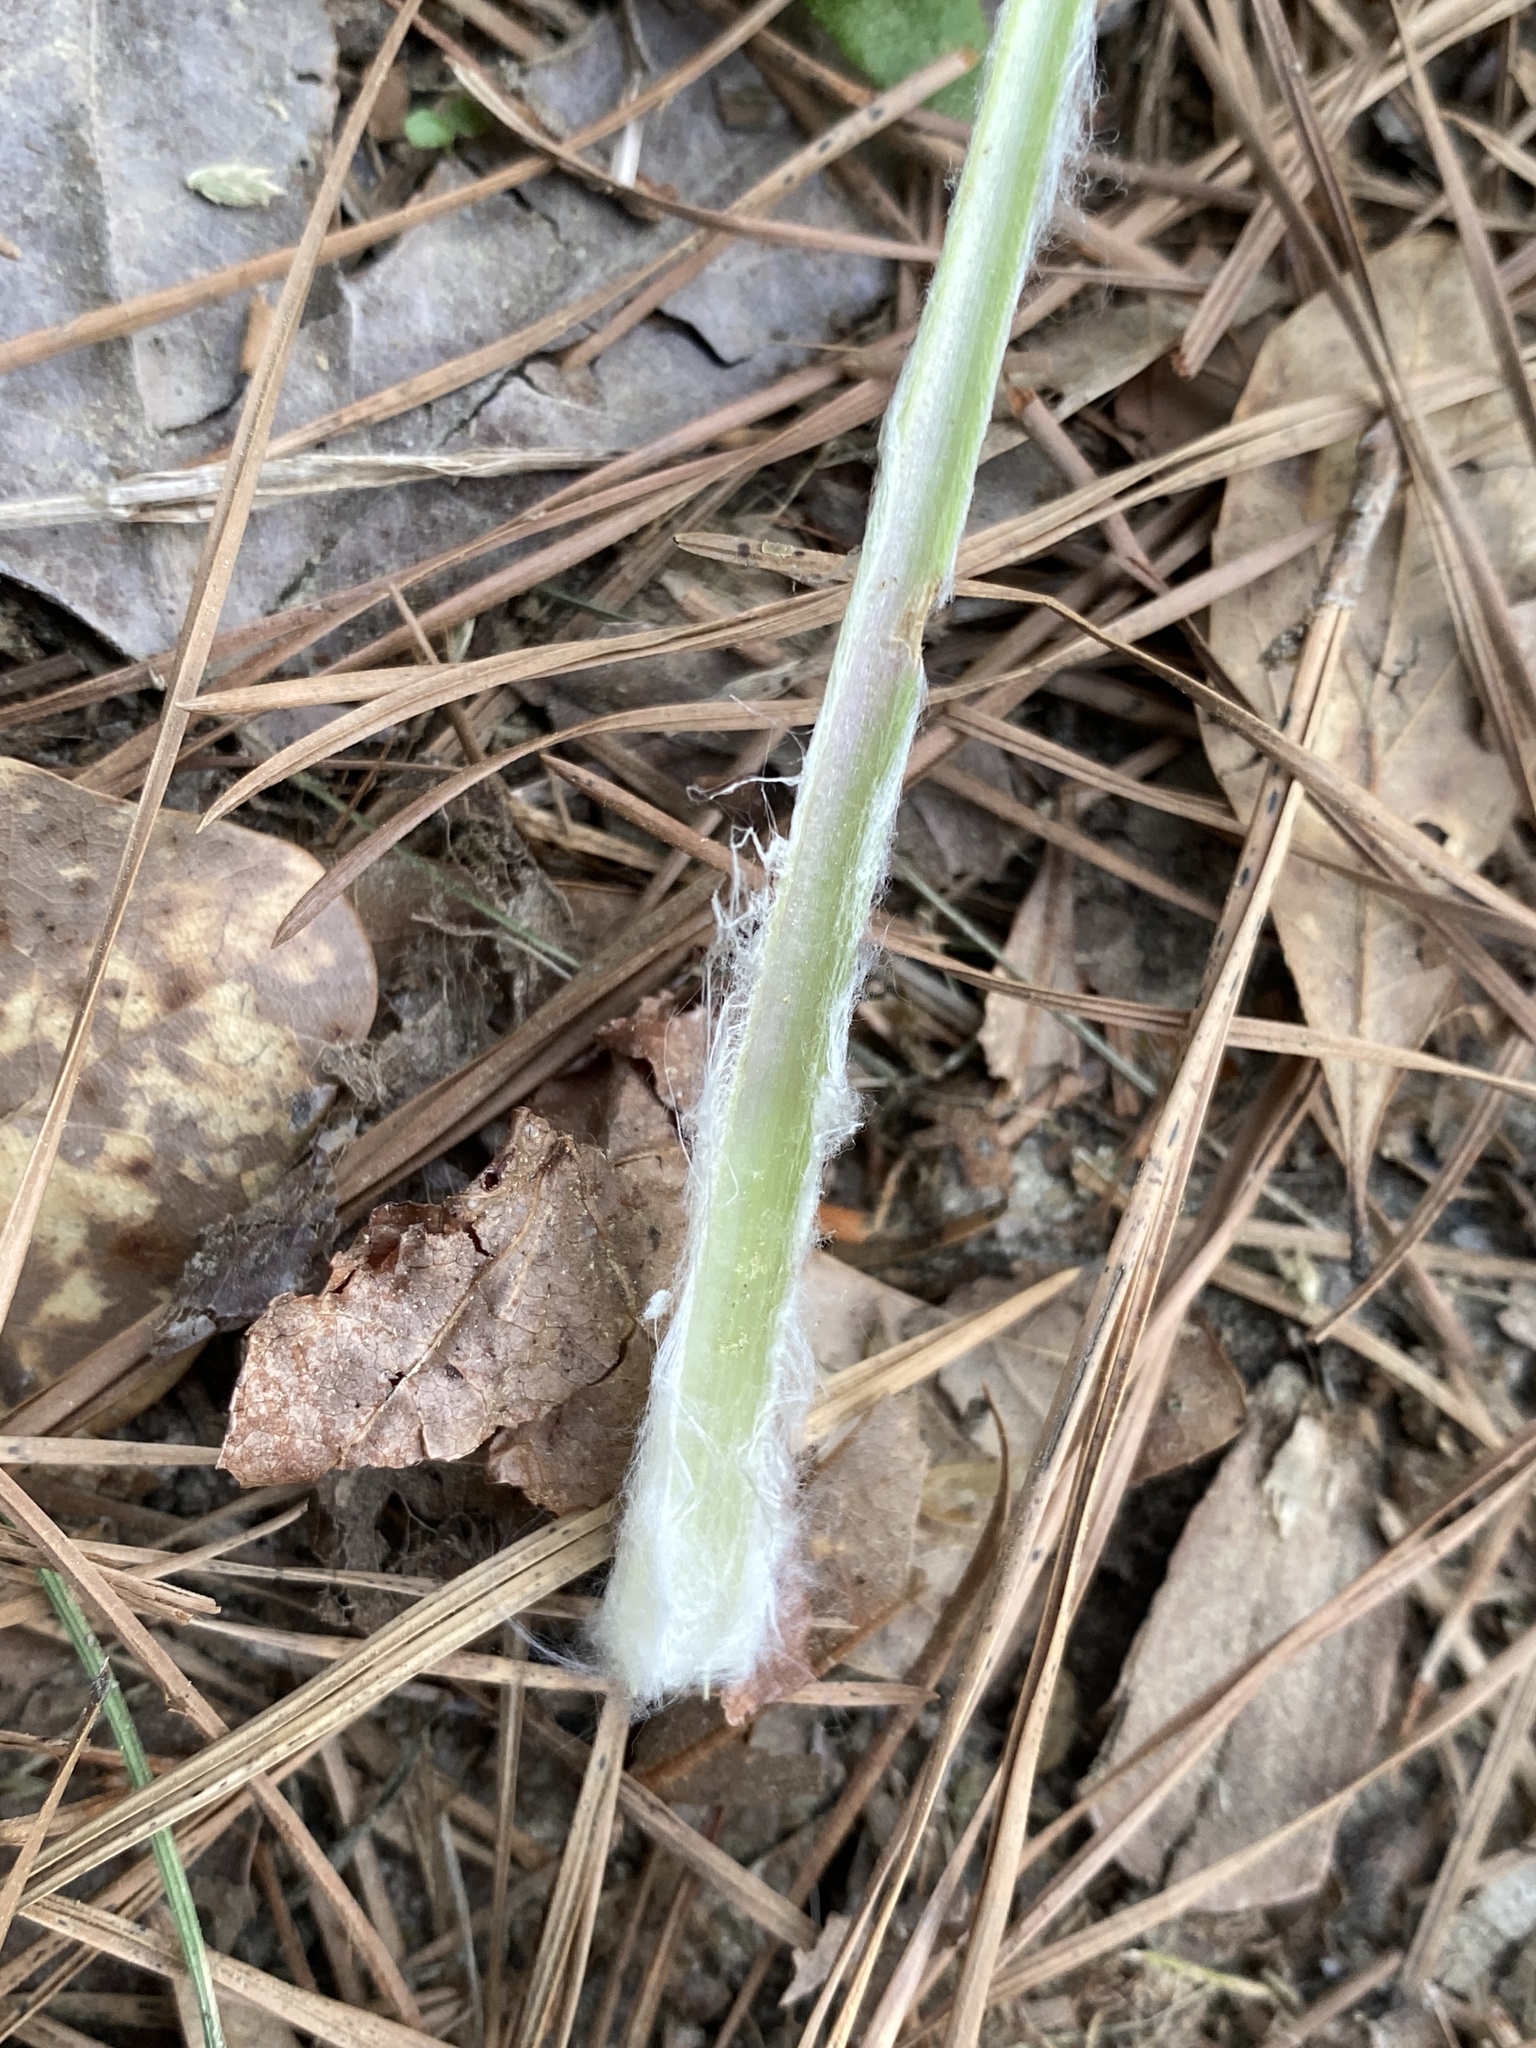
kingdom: Plantae
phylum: Tracheophyta
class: Magnoliopsida
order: Asterales
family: Asteraceae
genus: Packera
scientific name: Packera anonyma
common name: Small ragwort
